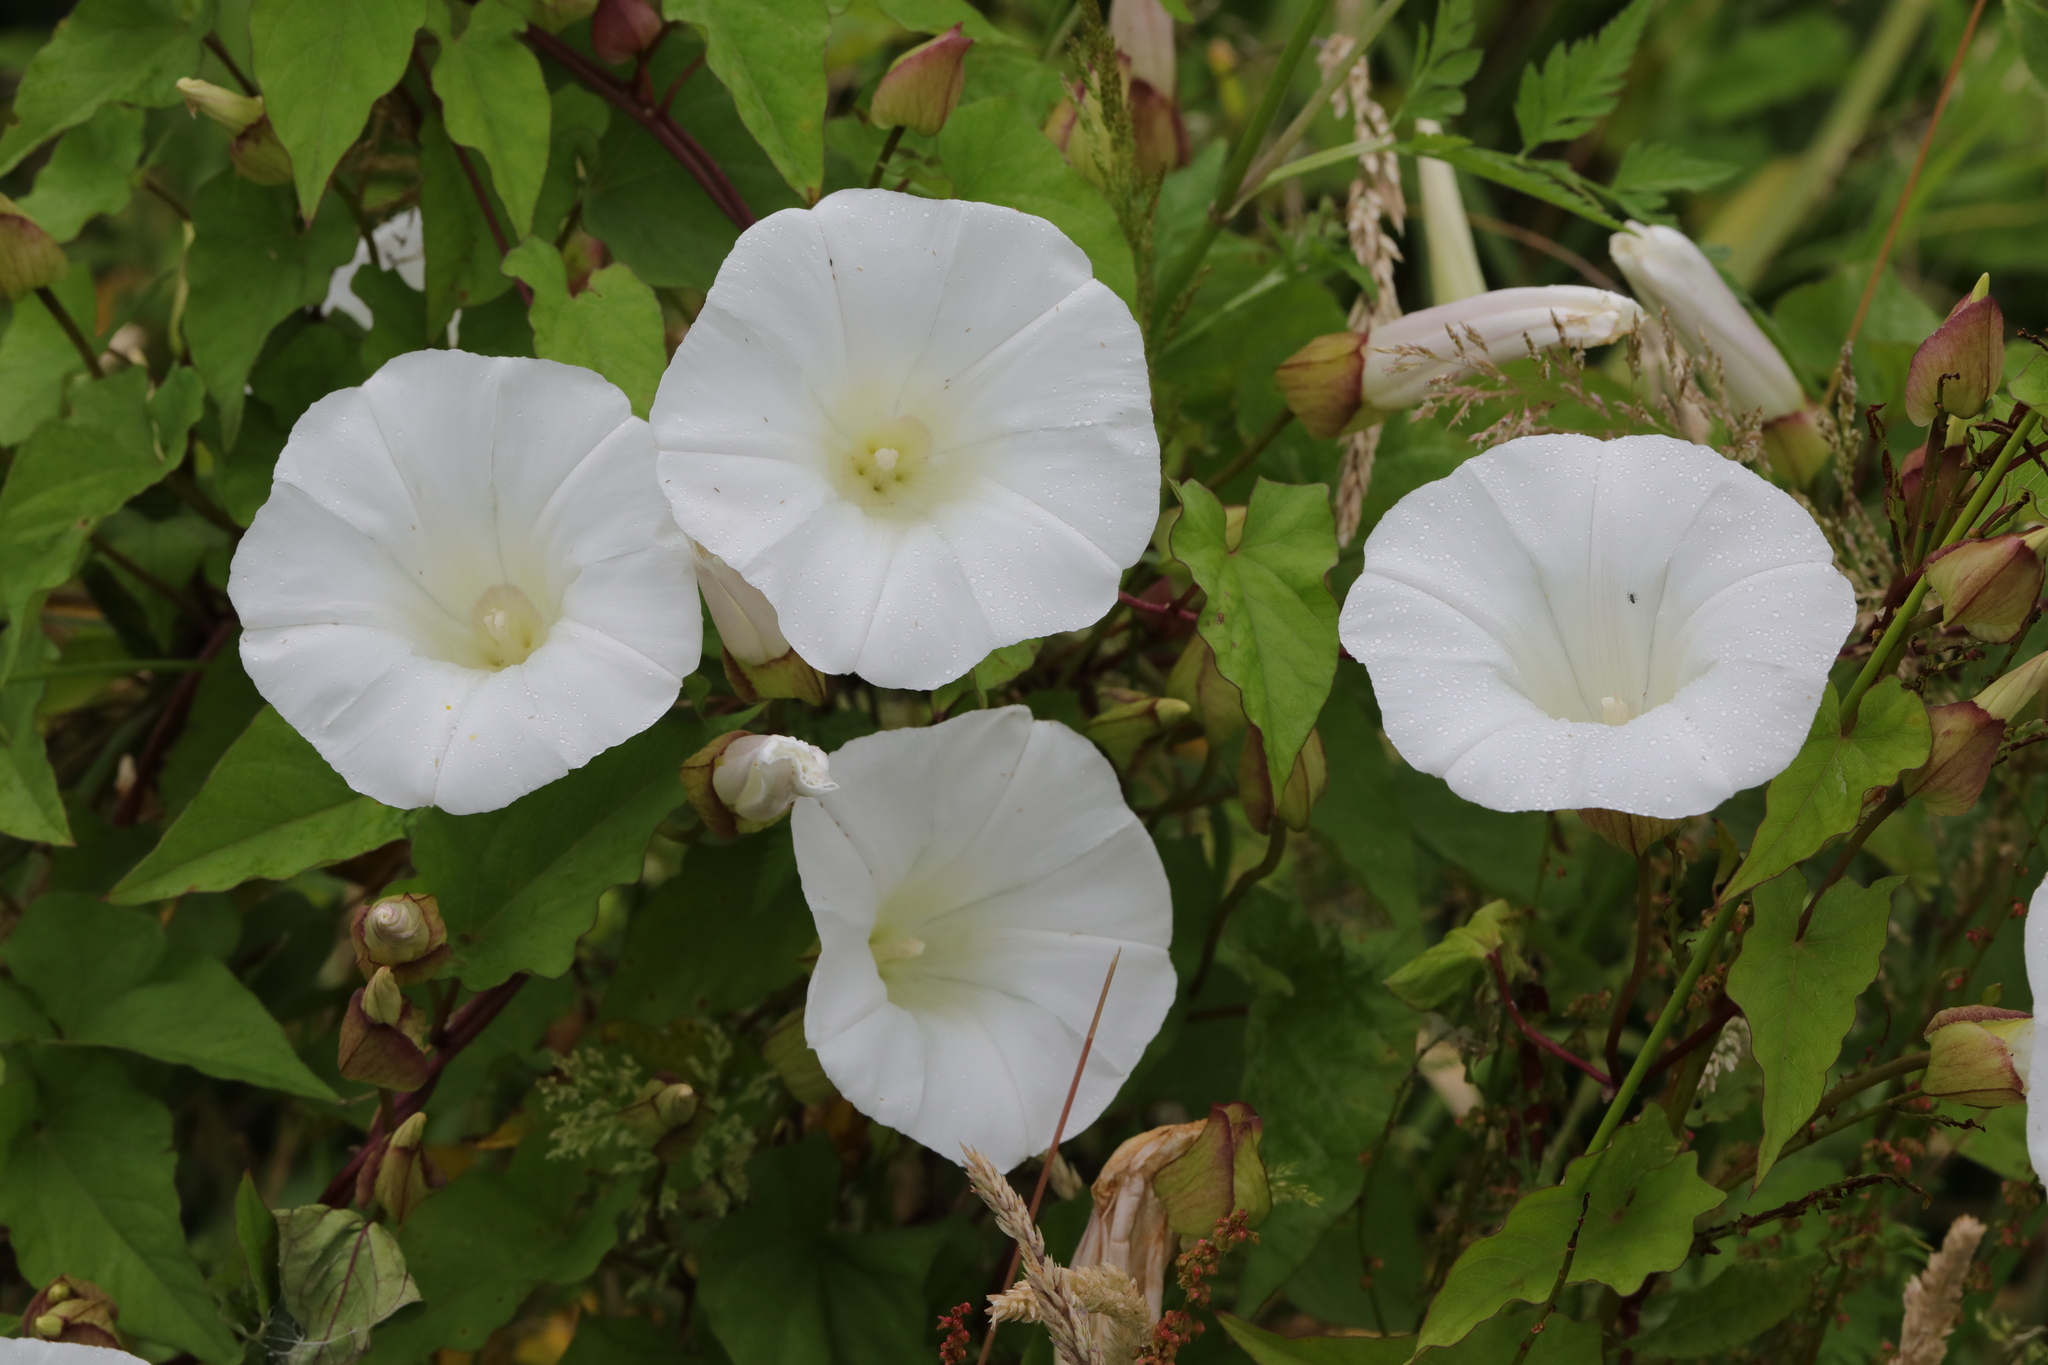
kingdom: Plantae
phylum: Tracheophyta
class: Magnoliopsida
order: Solanales
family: Convolvulaceae
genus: Calystegia
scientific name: Calystegia silvatica
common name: Large bindweed
